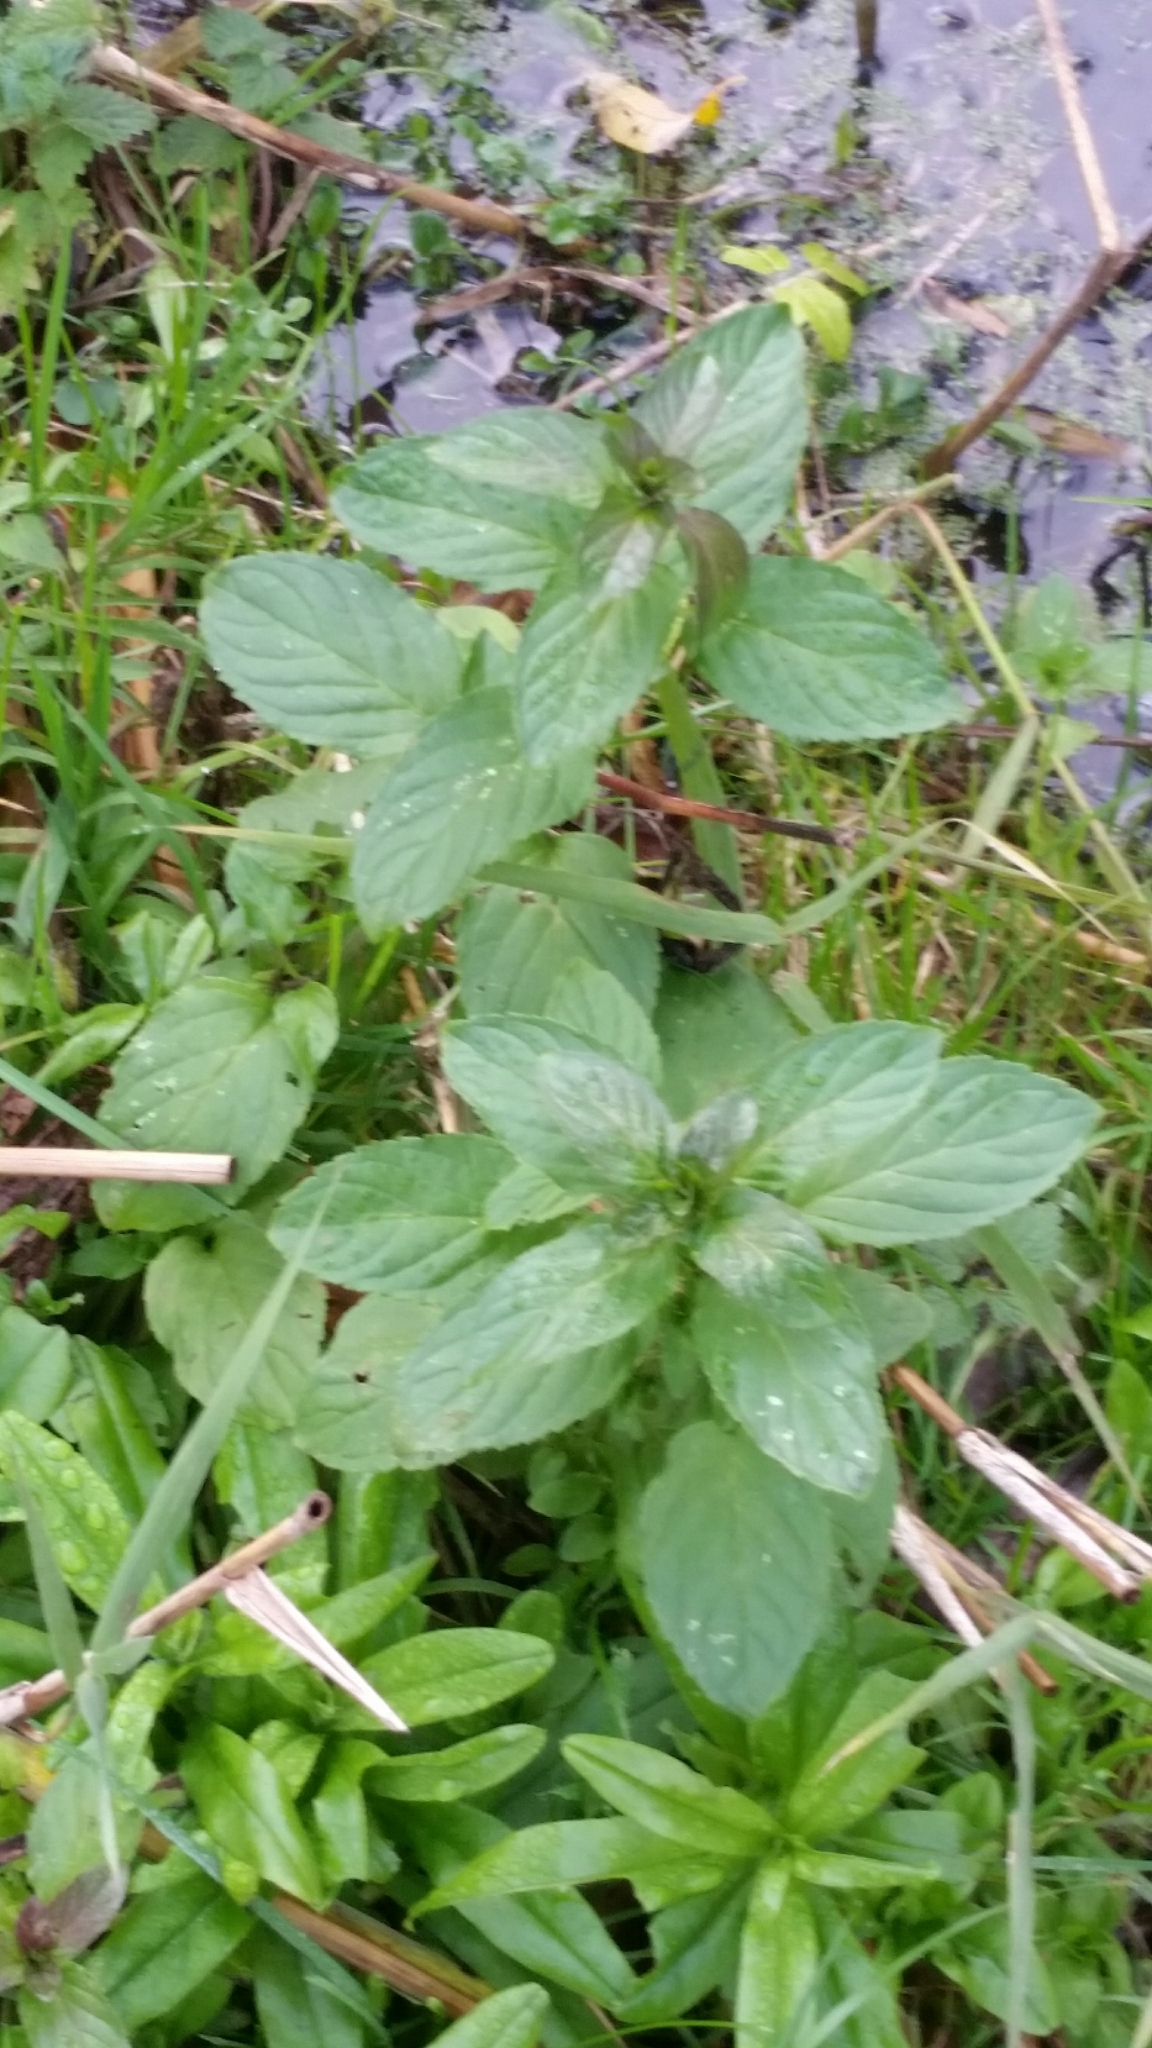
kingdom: Plantae
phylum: Tracheophyta
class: Magnoliopsida
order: Lamiales
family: Lamiaceae
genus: Mentha
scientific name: Mentha aquatica
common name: Water mint
